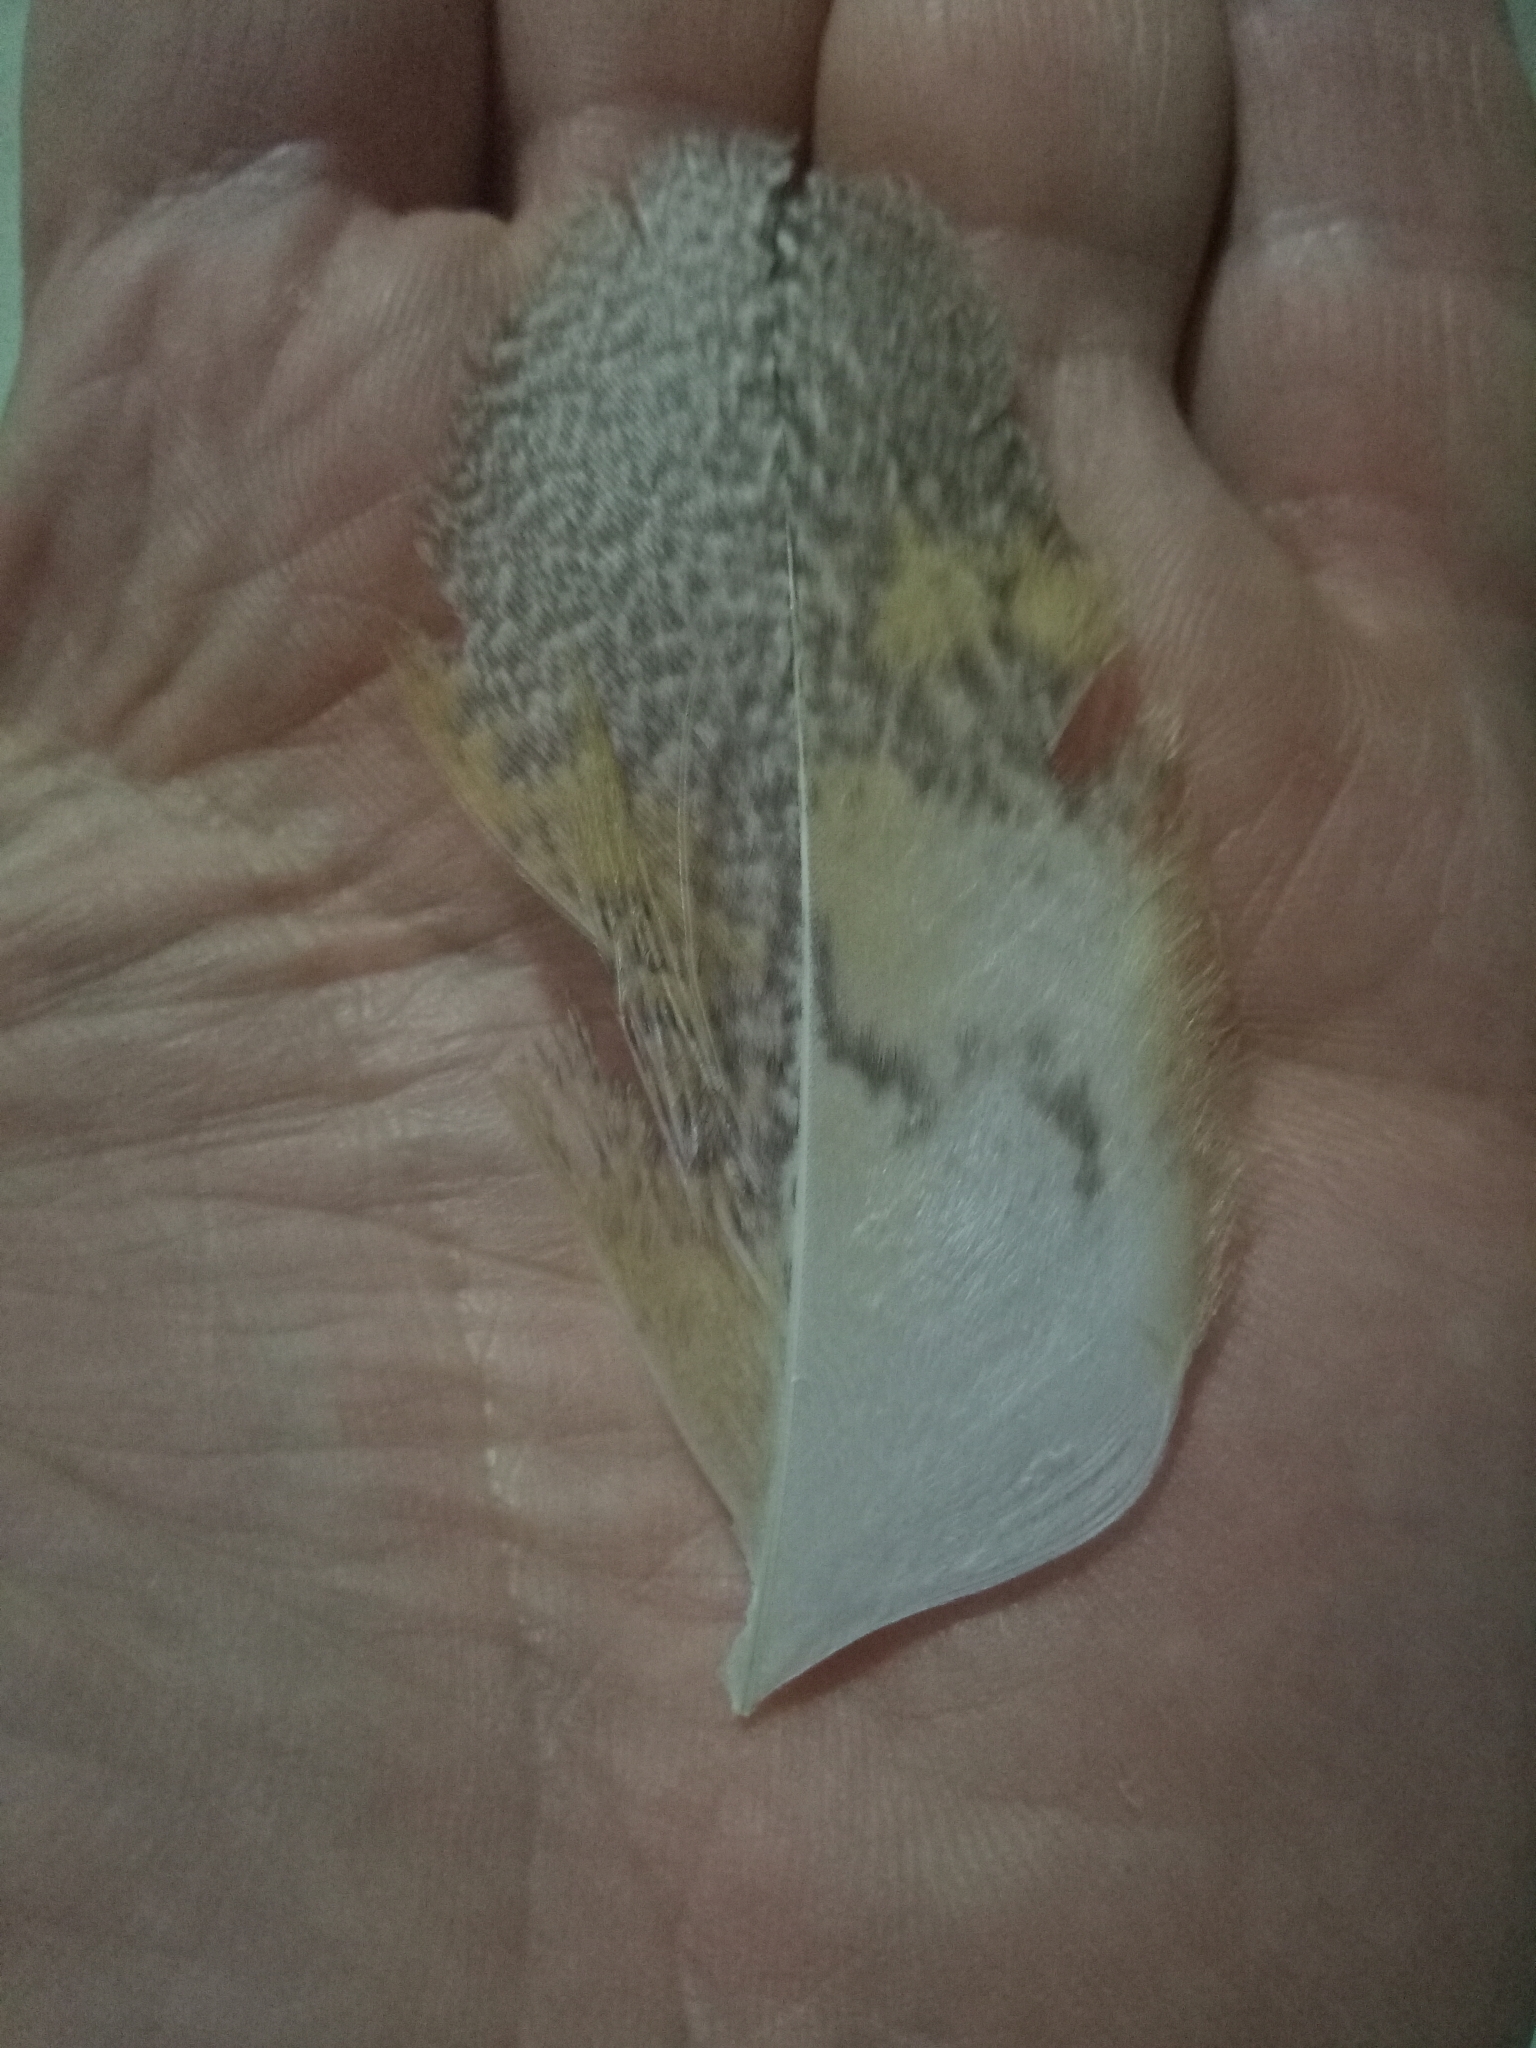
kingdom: Animalia
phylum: Chordata
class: Aves
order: Strigiformes
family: Tytonidae
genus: Tyto
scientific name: Tyto alba
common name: Barn owl
